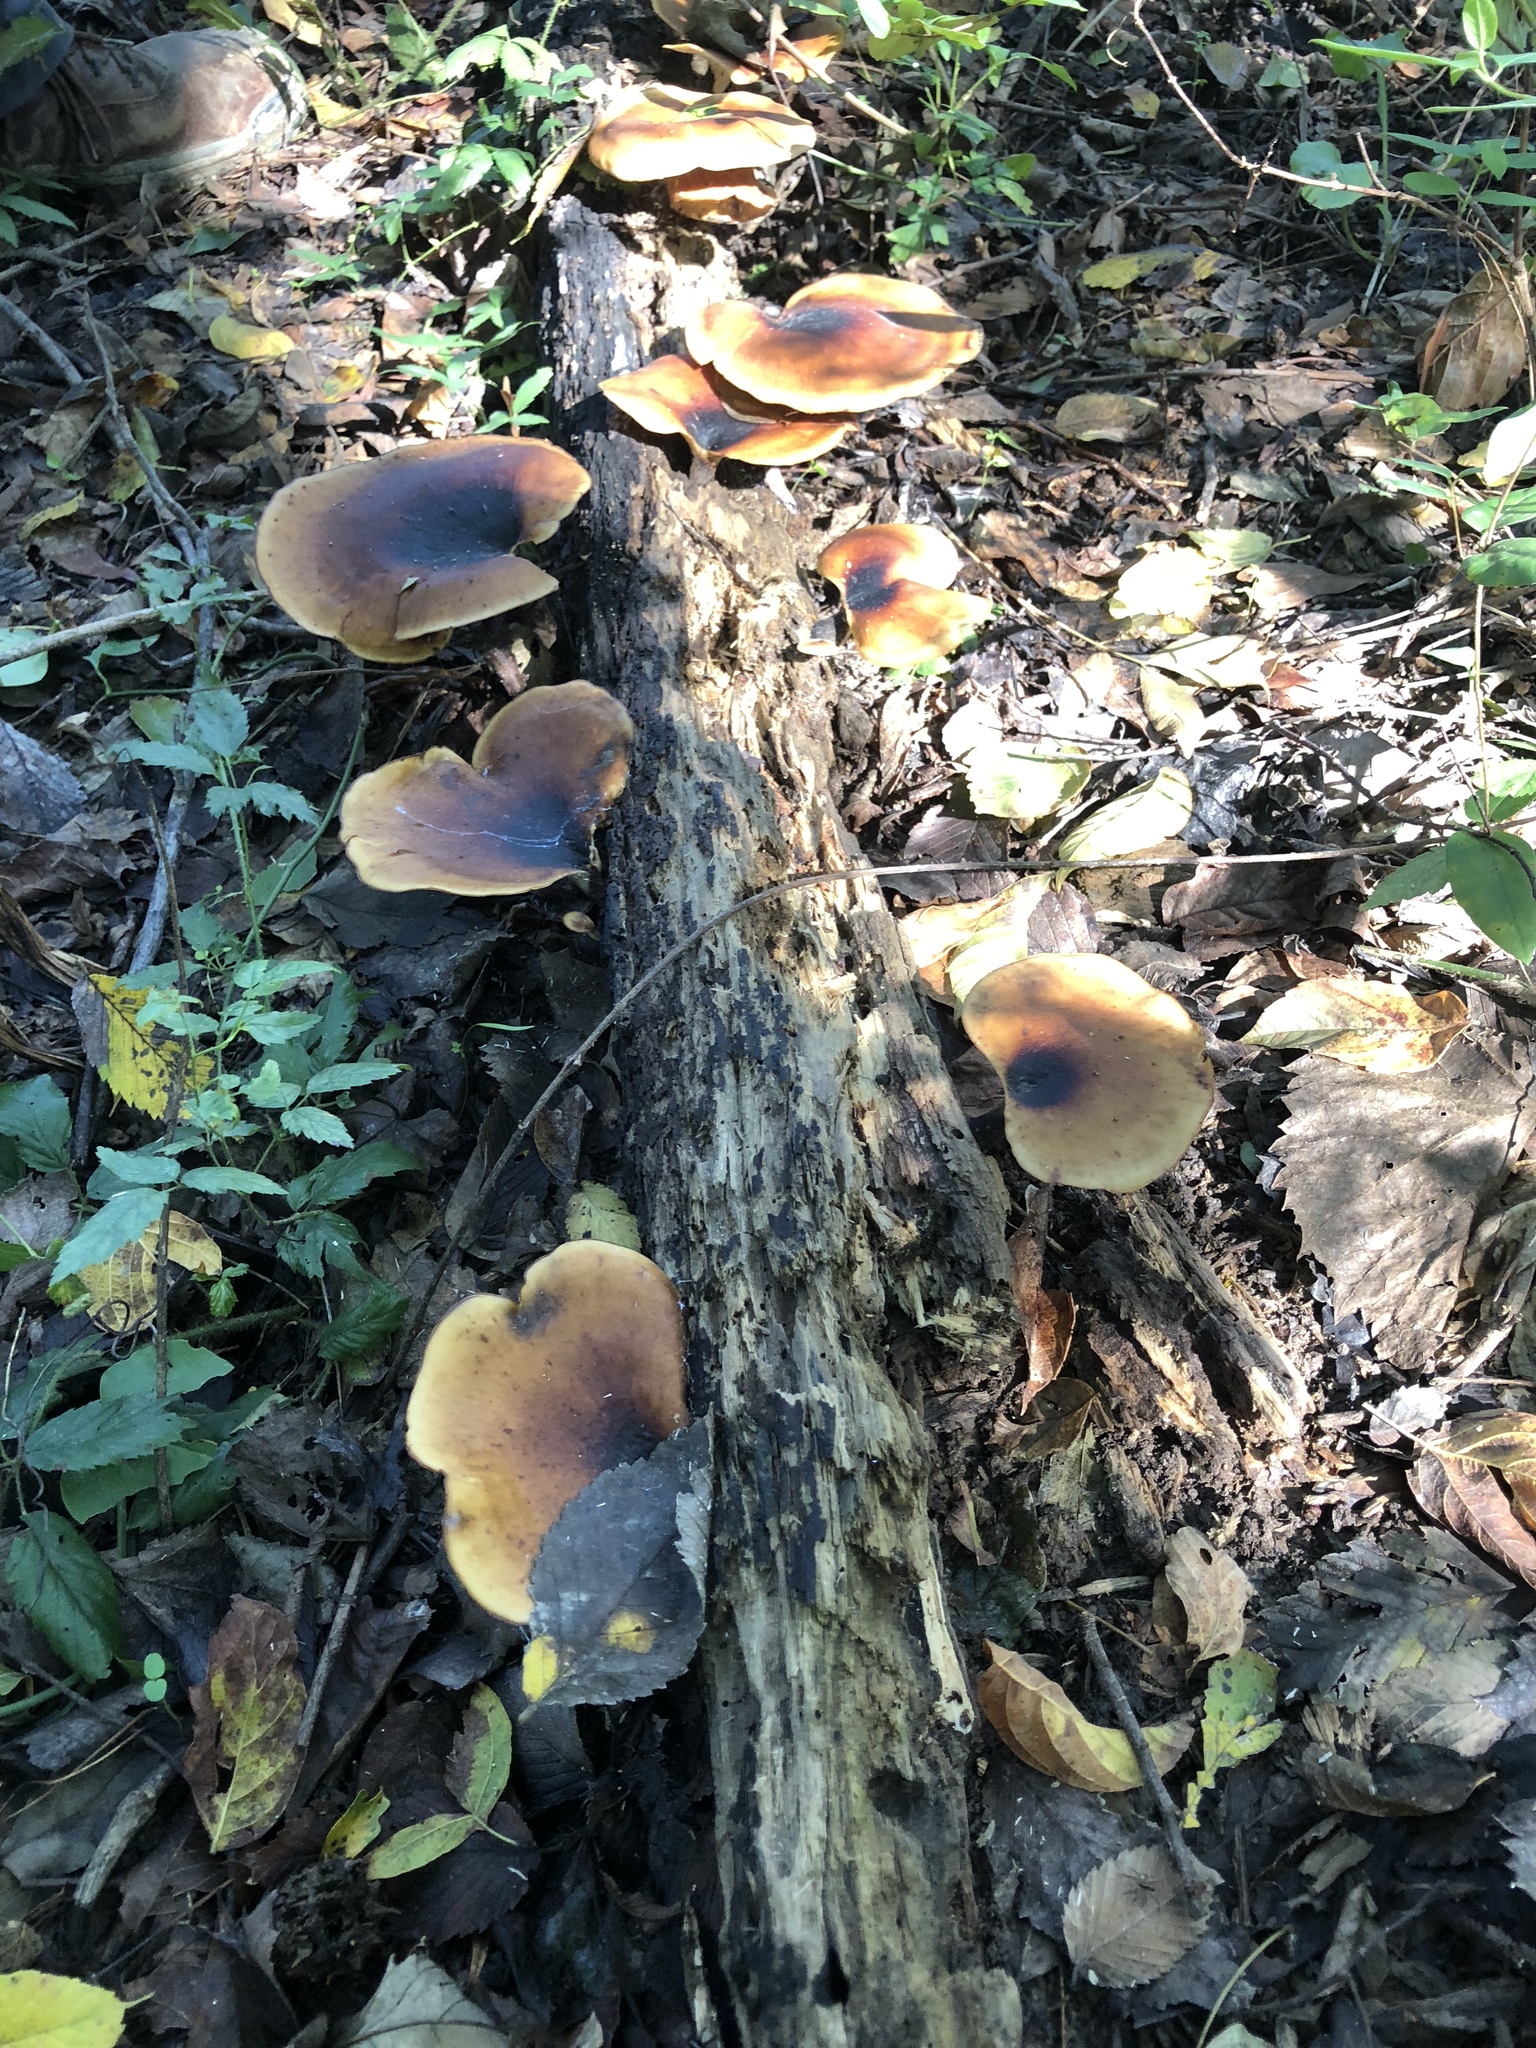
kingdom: Fungi
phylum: Basidiomycota
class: Agaricomycetes
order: Polyporales
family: Polyporaceae
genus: Picipes
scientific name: Picipes badius
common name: Bay polypore
